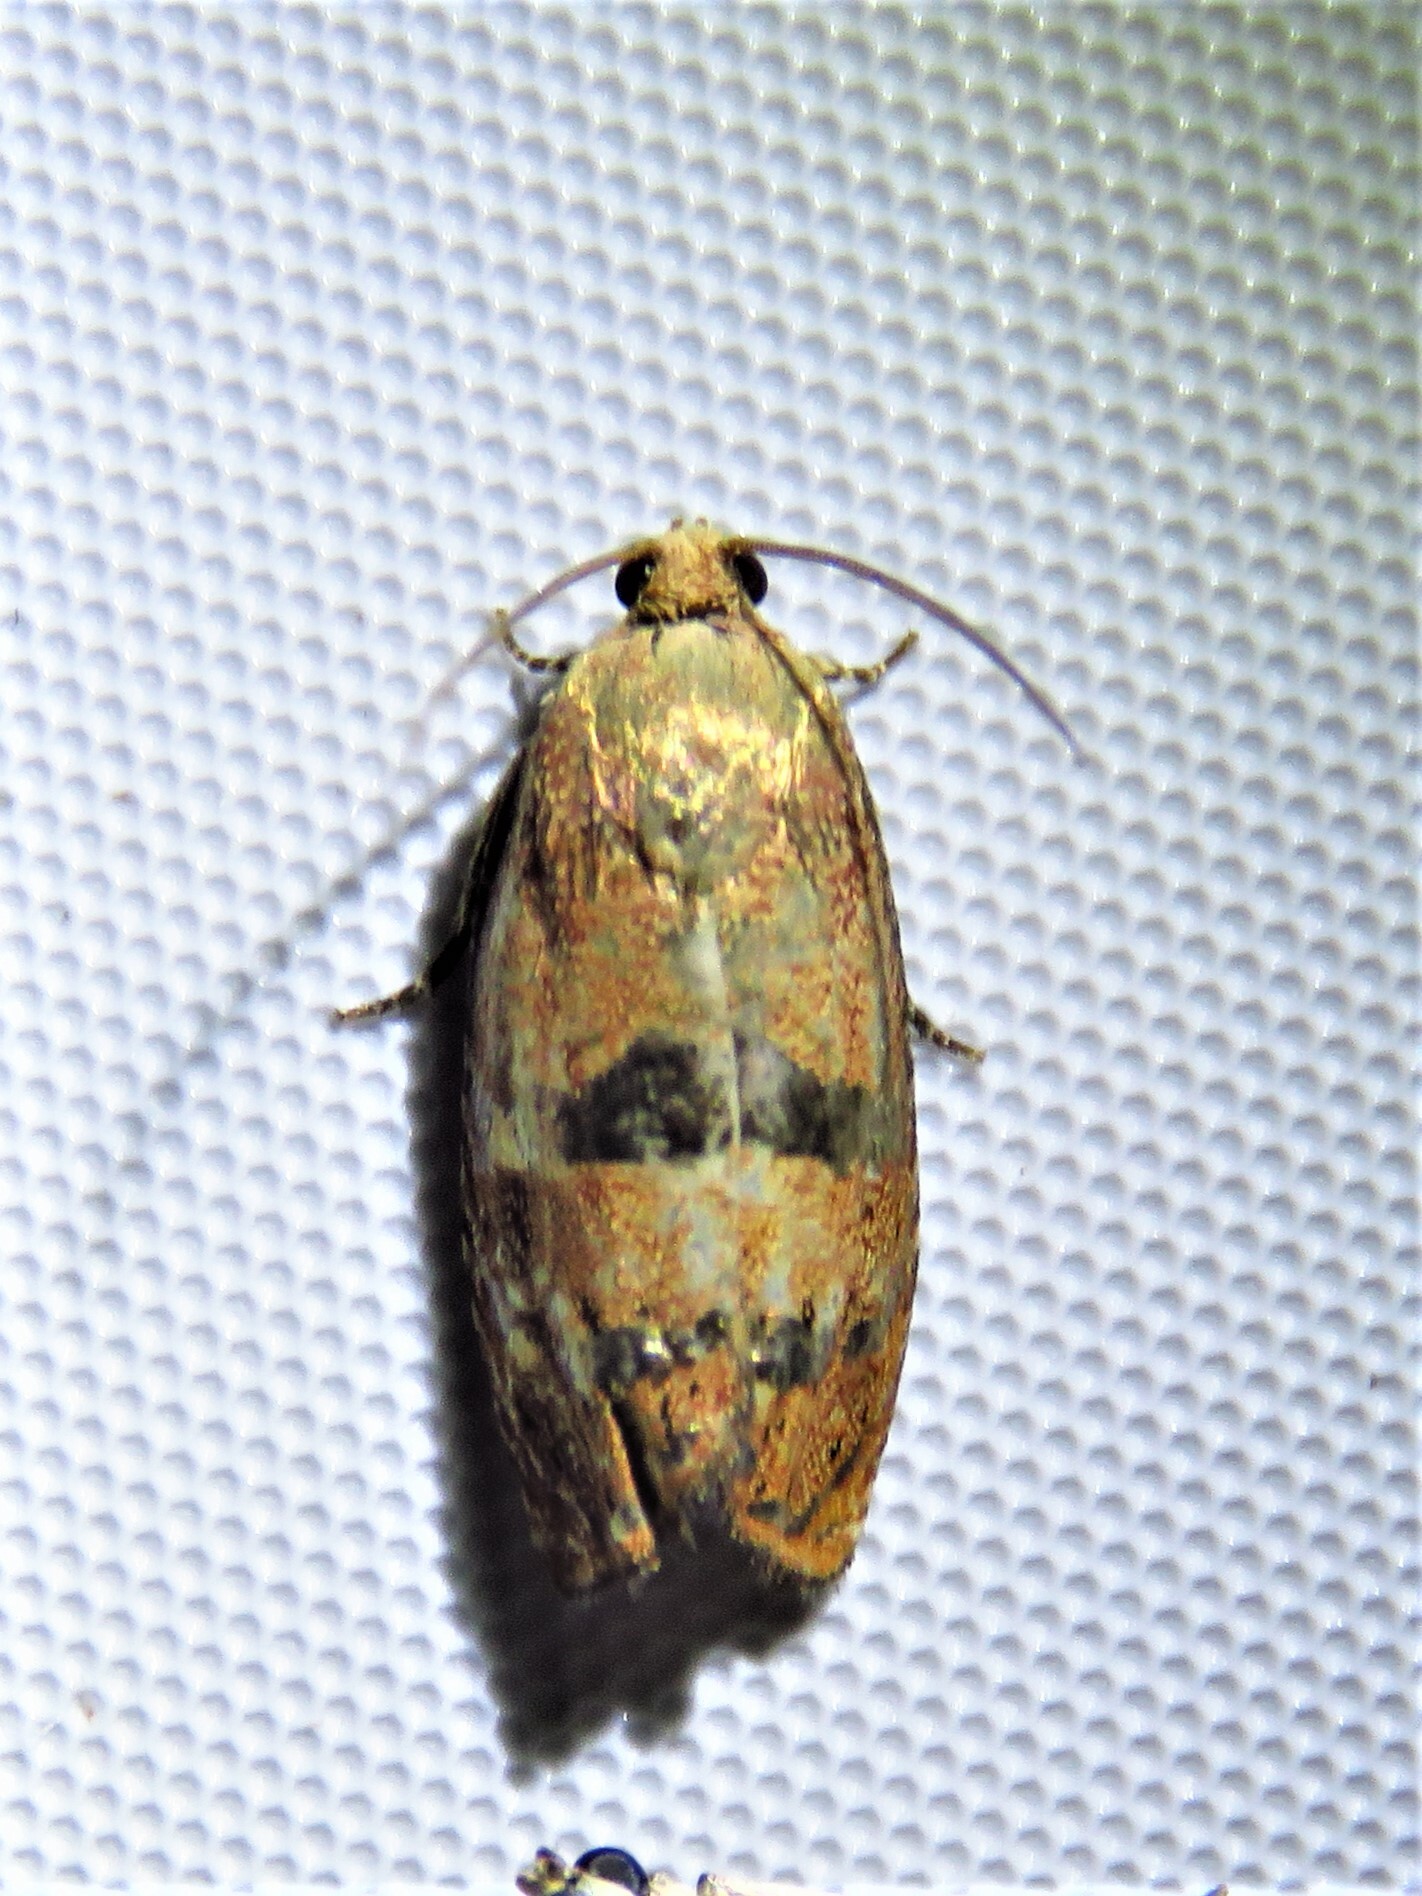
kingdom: Animalia
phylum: Arthropoda
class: Insecta
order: Lepidoptera
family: Tortricidae
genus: Cydia
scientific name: Cydia latiferreana
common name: Filbertworm moth
